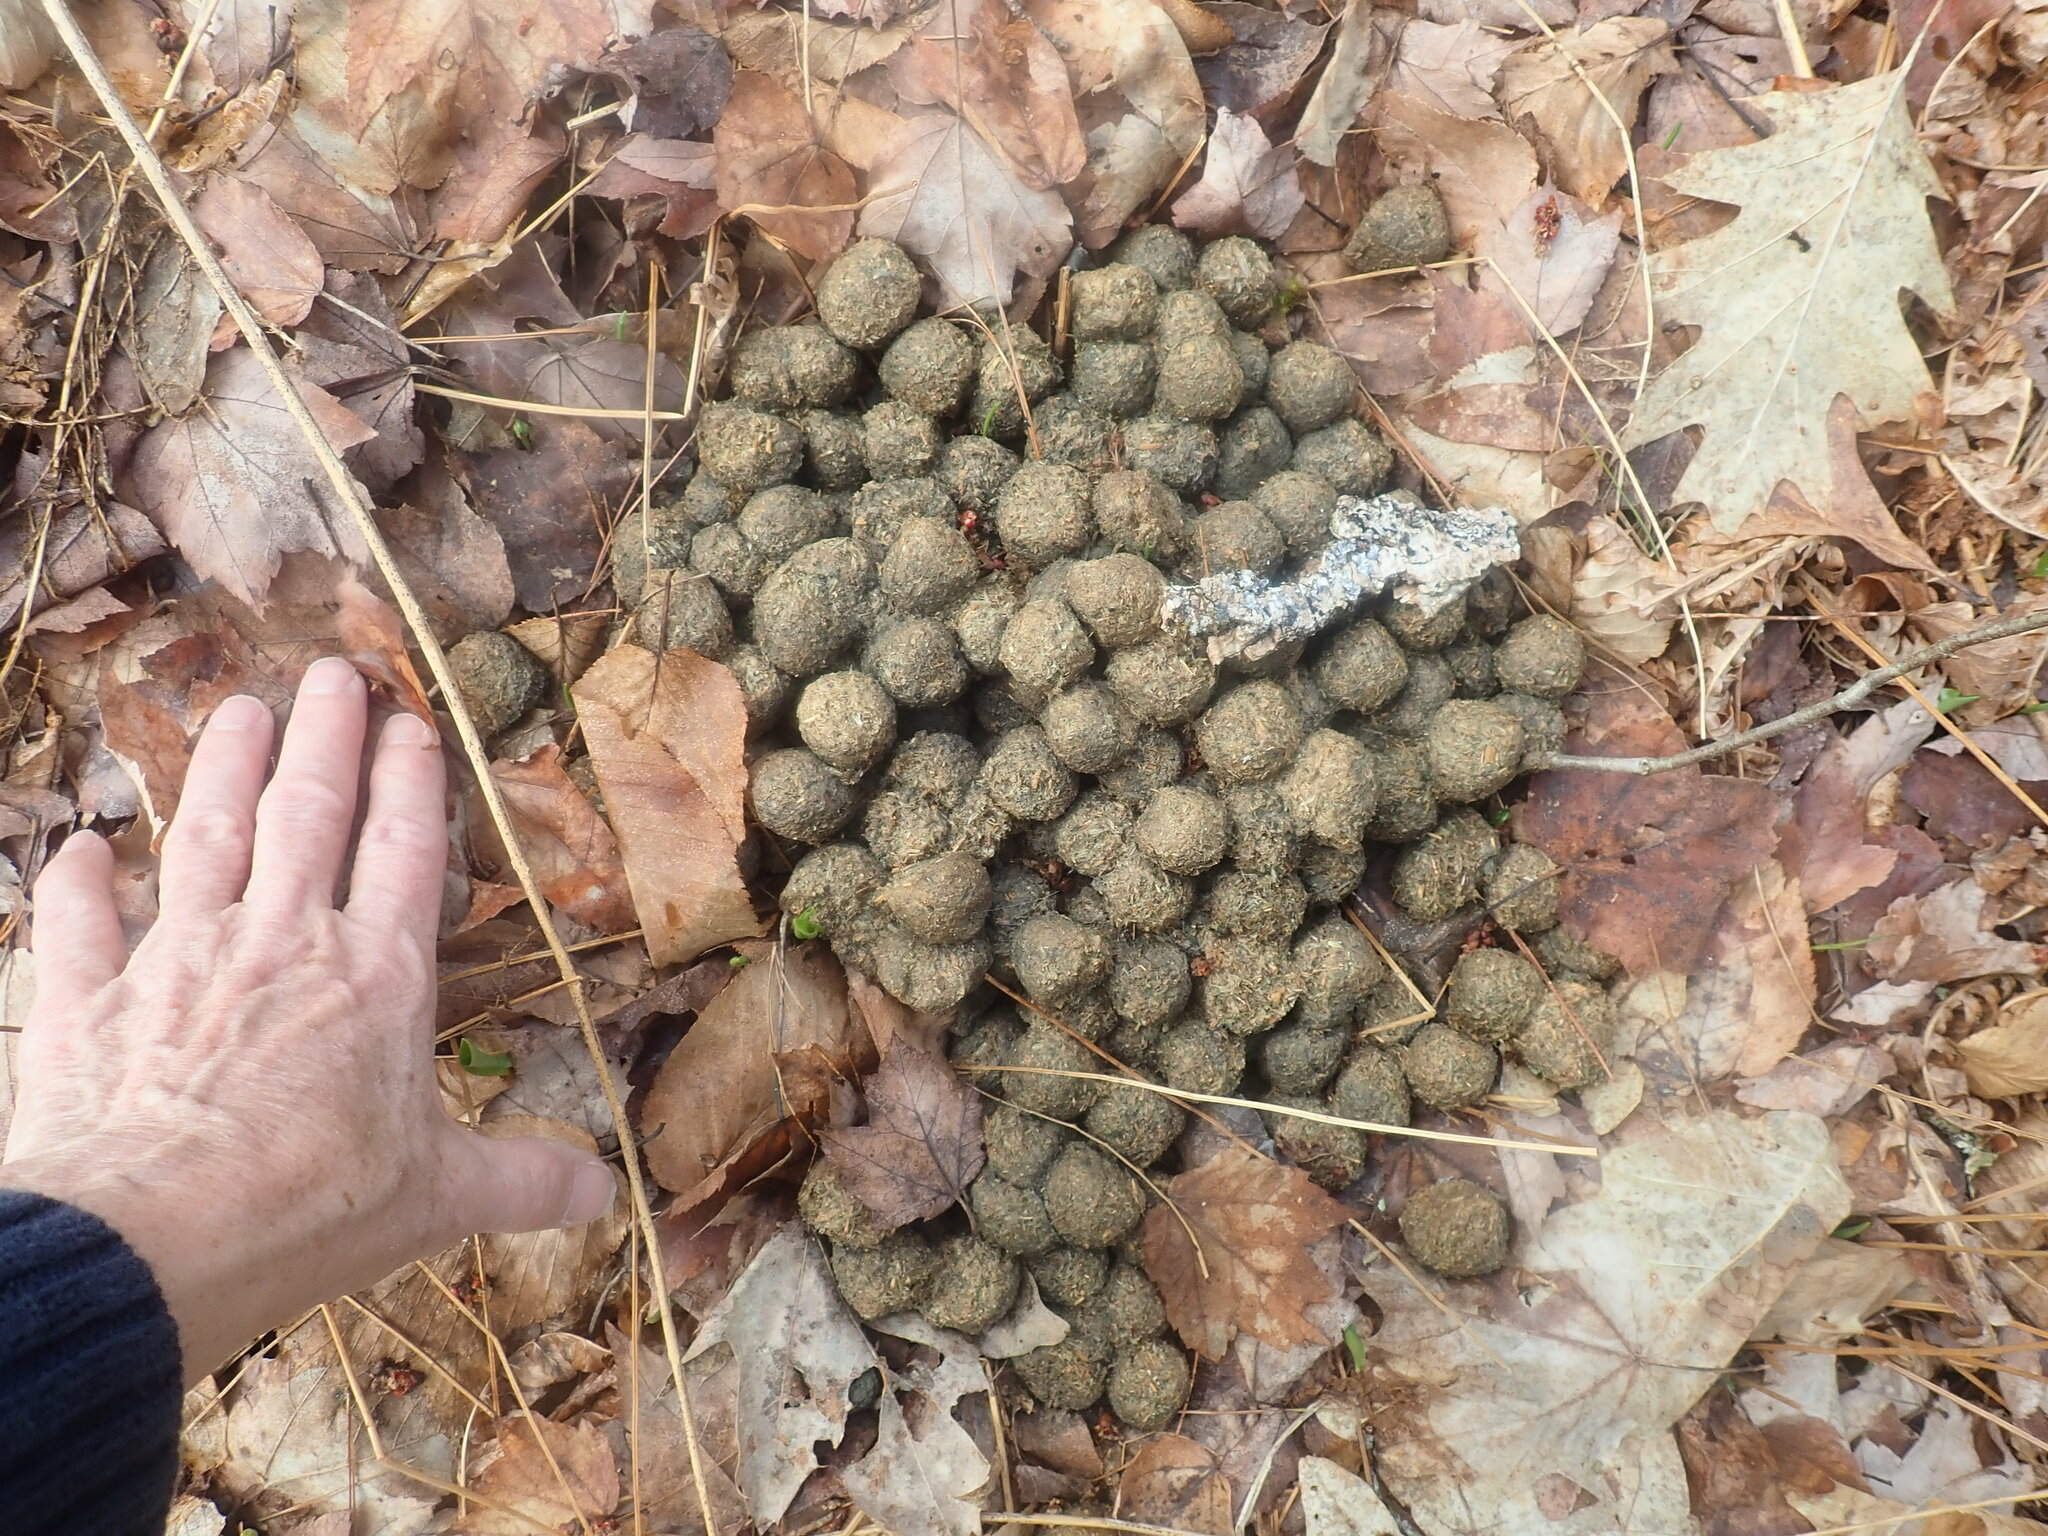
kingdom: Animalia
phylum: Chordata
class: Mammalia
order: Artiodactyla
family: Cervidae
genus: Alces
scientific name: Alces alces
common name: Moose
